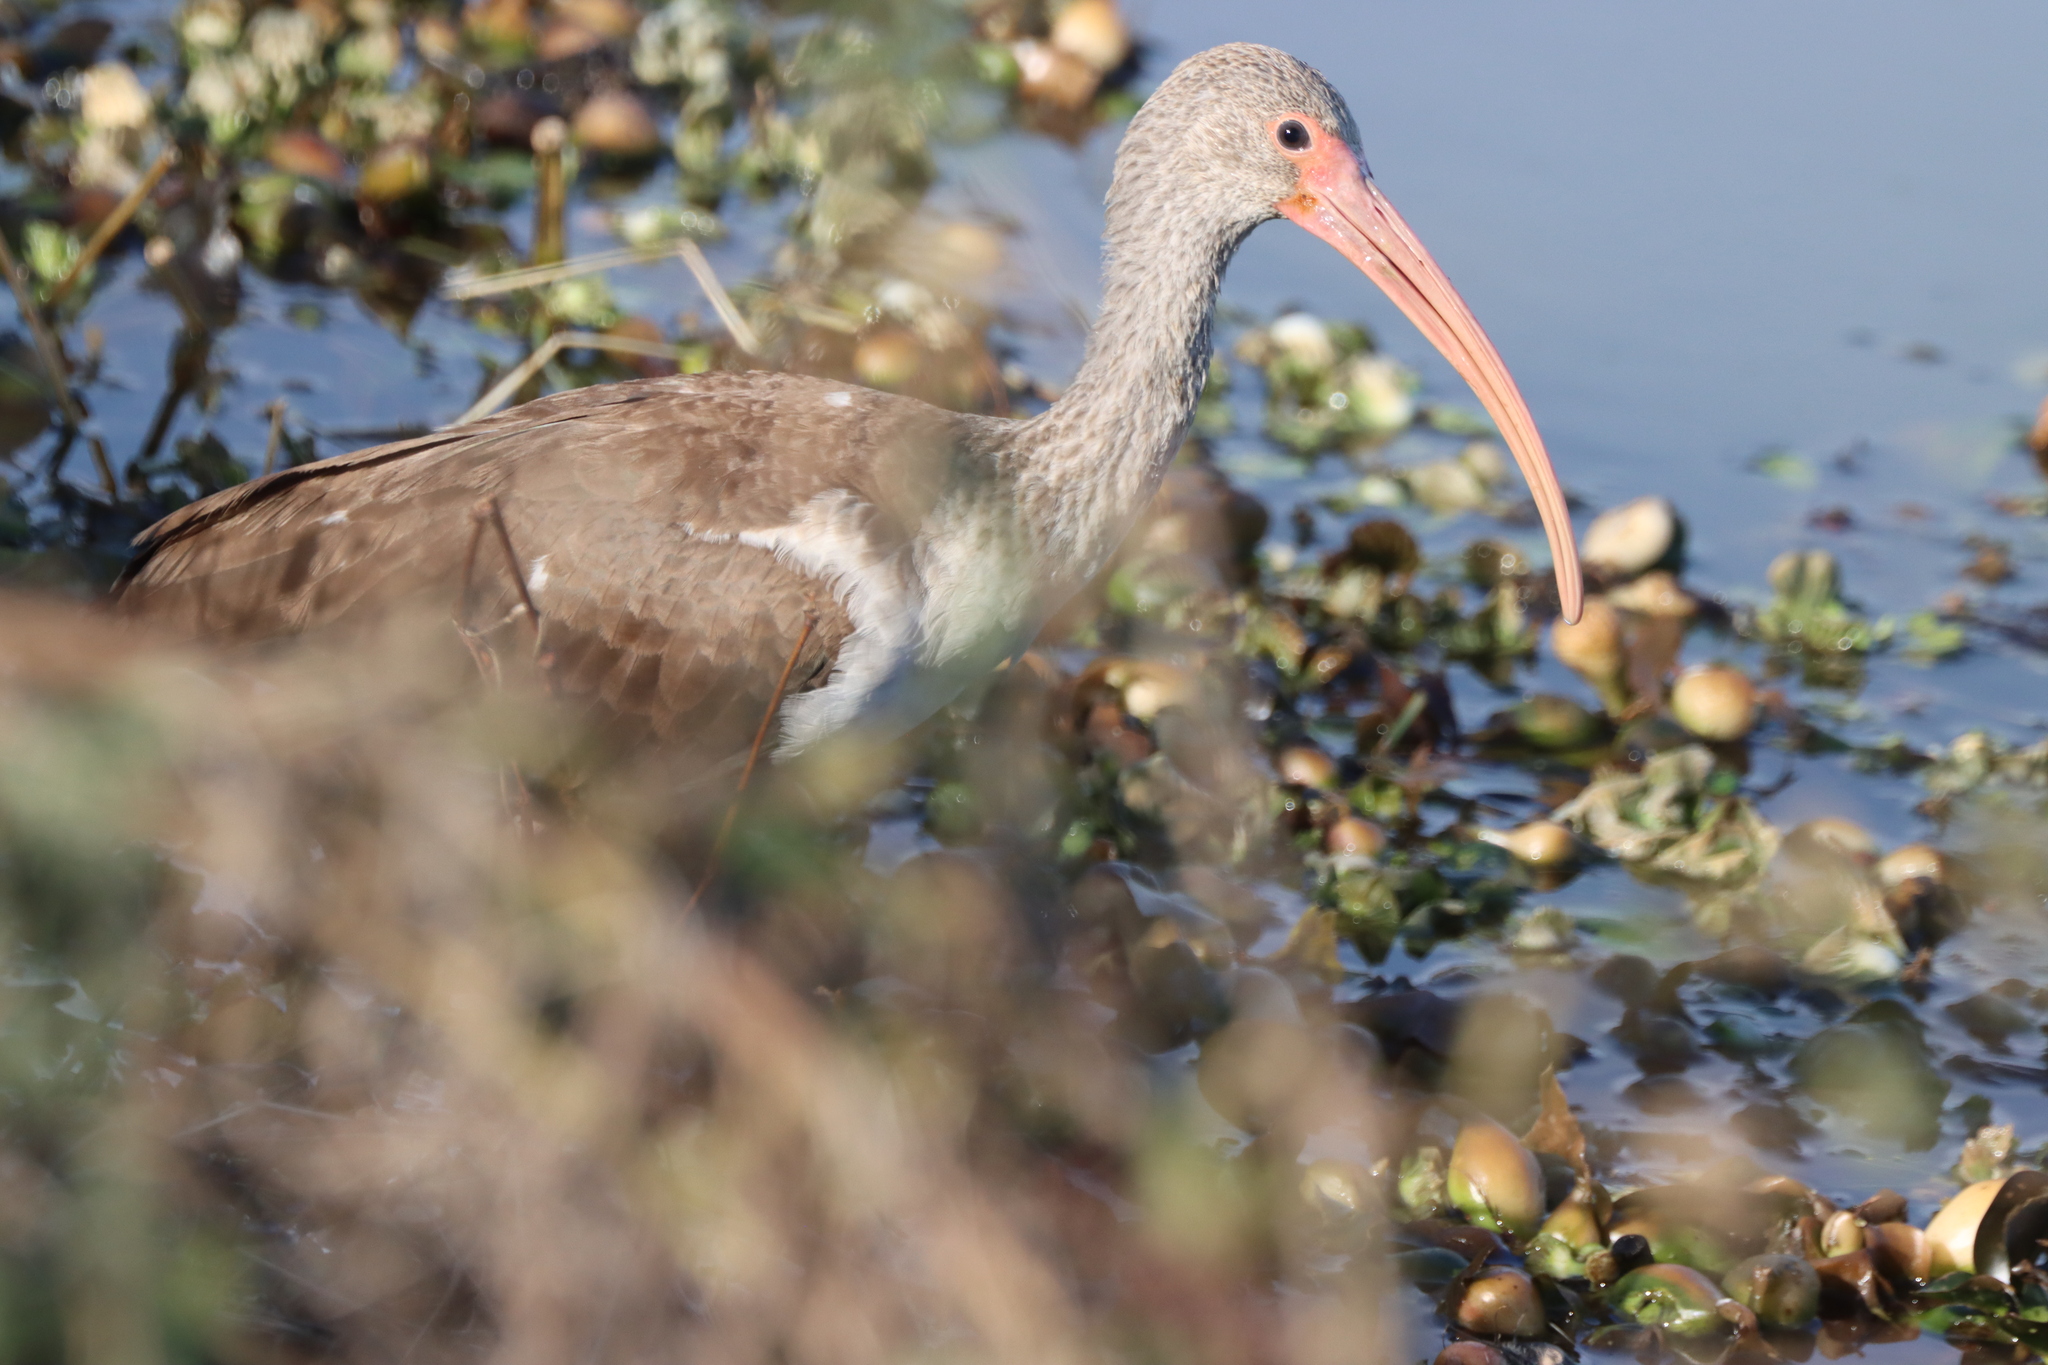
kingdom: Animalia
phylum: Chordata
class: Aves
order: Pelecaniformes
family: Threskiornithidae
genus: Eudocimus
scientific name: Eudocimus albus
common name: White ibis
